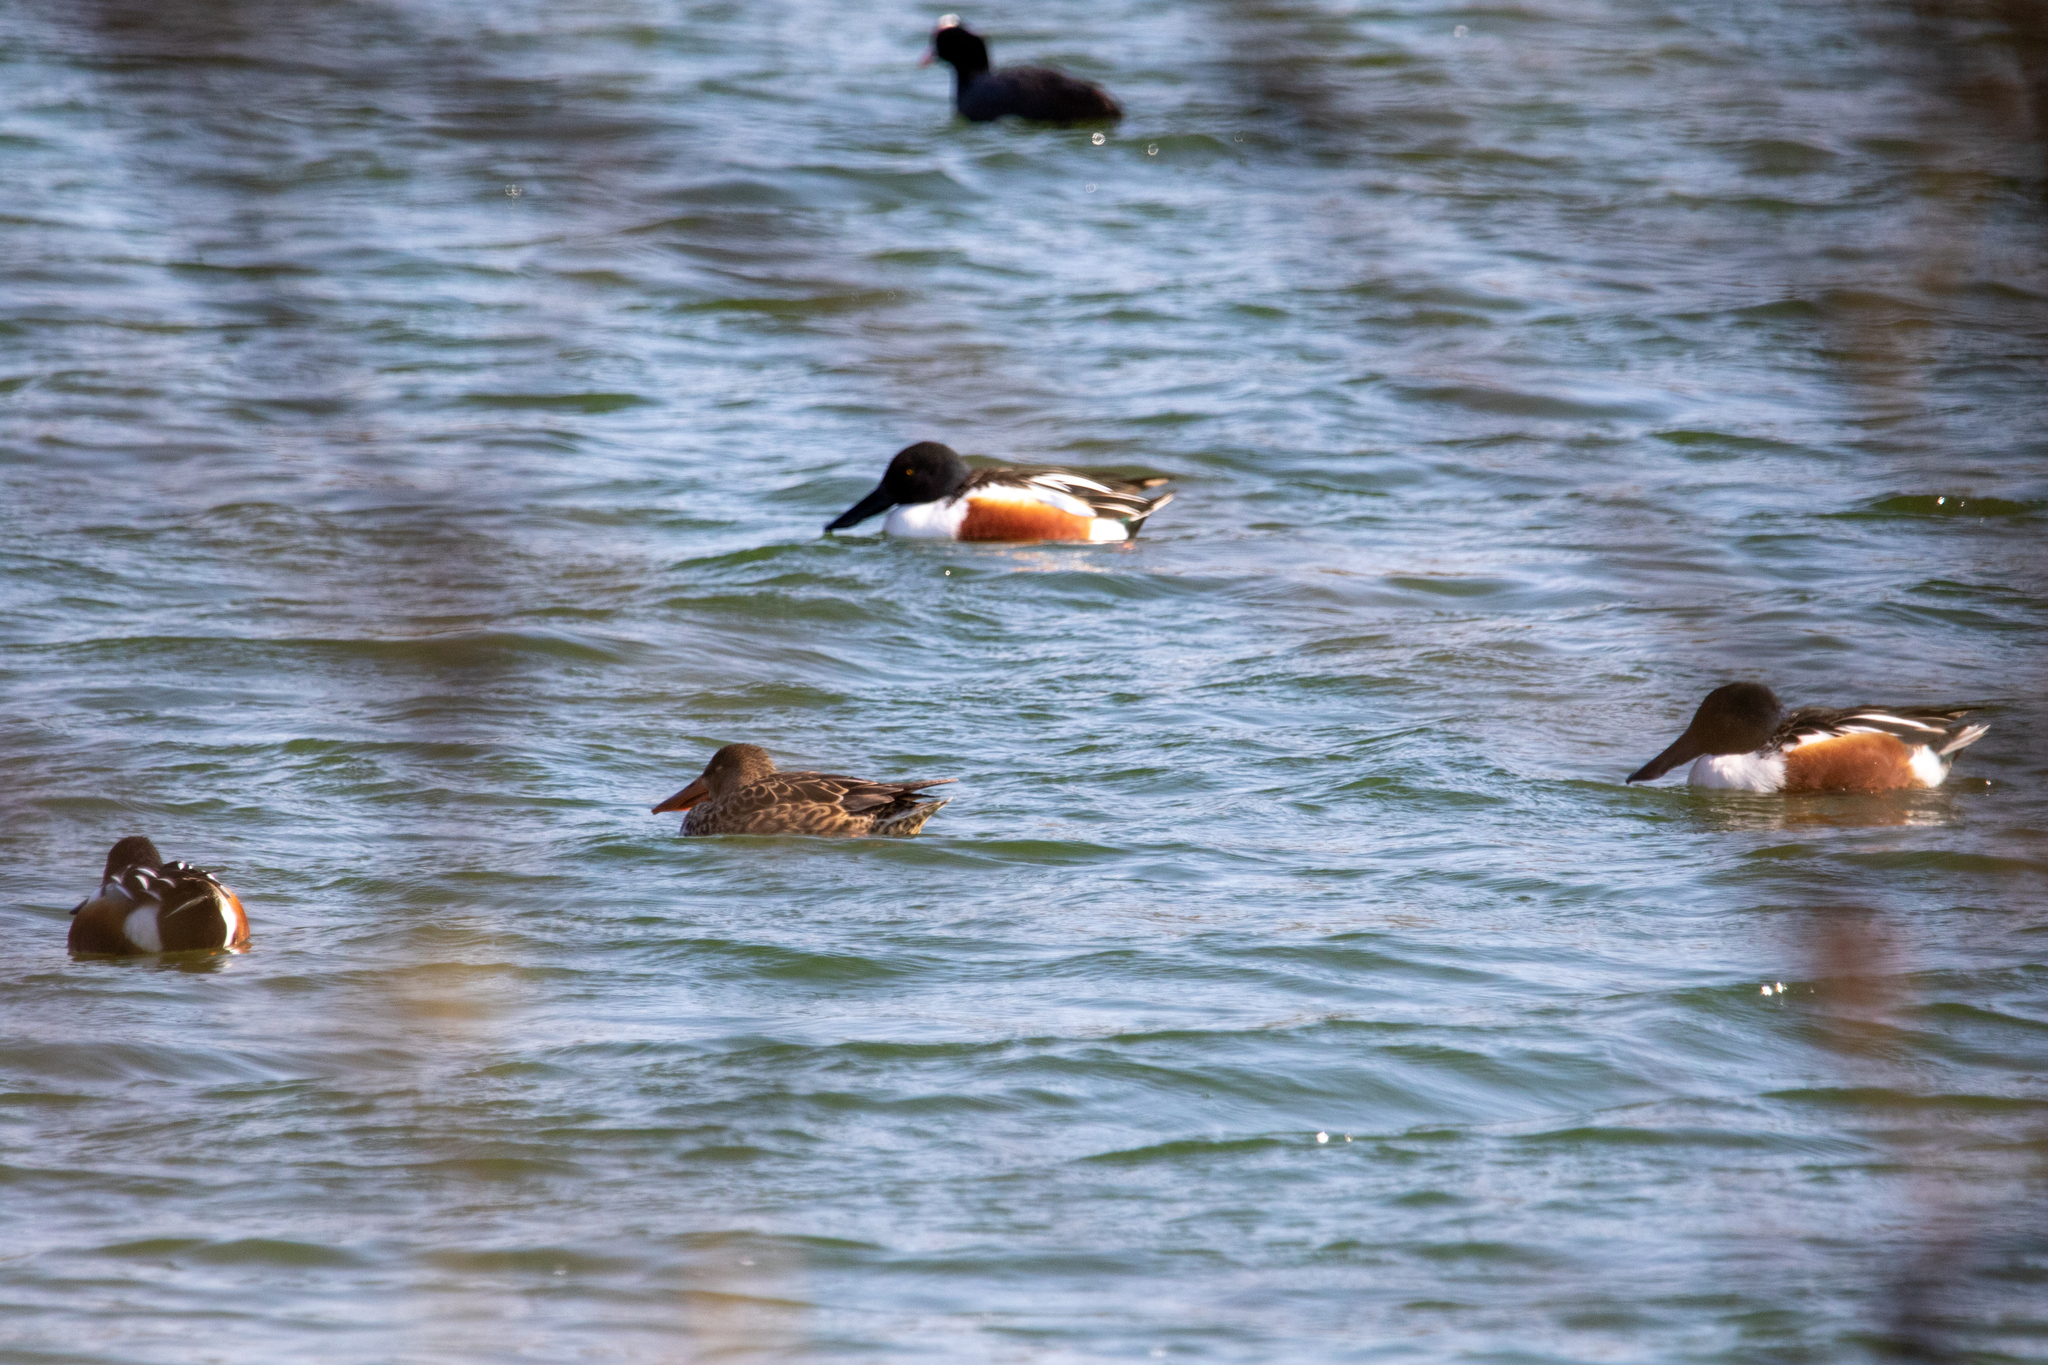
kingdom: Animalia
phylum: Chordata
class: Aves
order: Anseriformes
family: Anatidae
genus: Spatula
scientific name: Spatula clypeata
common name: Northern shoveler
